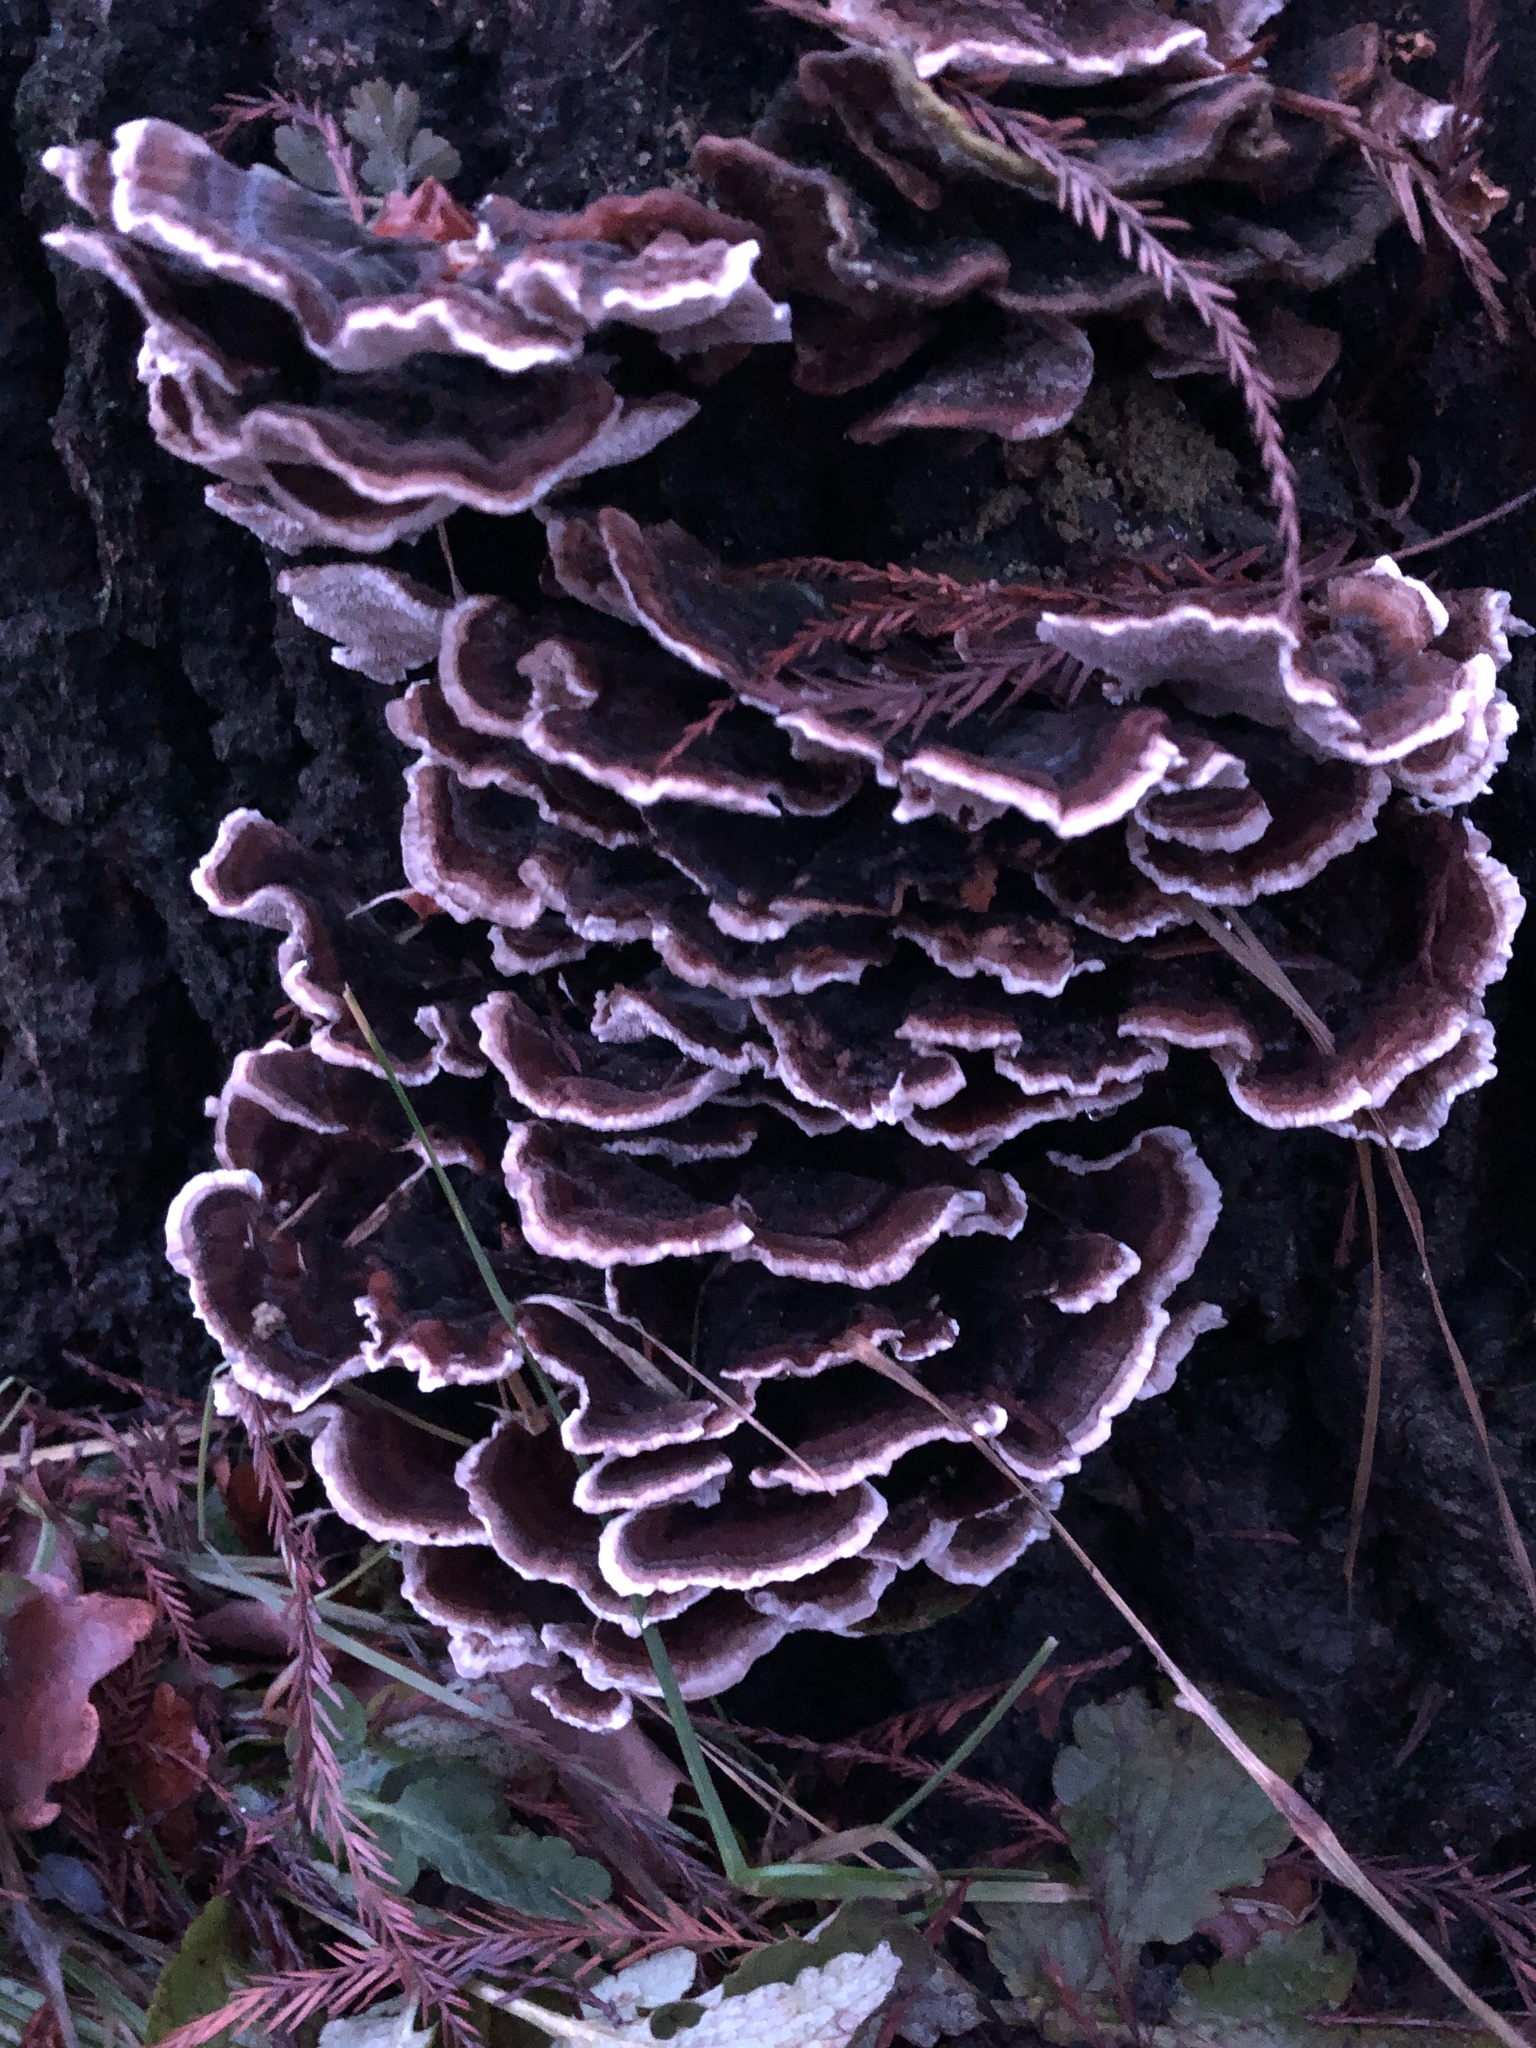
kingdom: Fungi
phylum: Basidiomycota
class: Agaricomycetes
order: Polyporales
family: Polyporaceae
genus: Trametes
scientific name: Trametes versicolor
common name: Turkeytail
